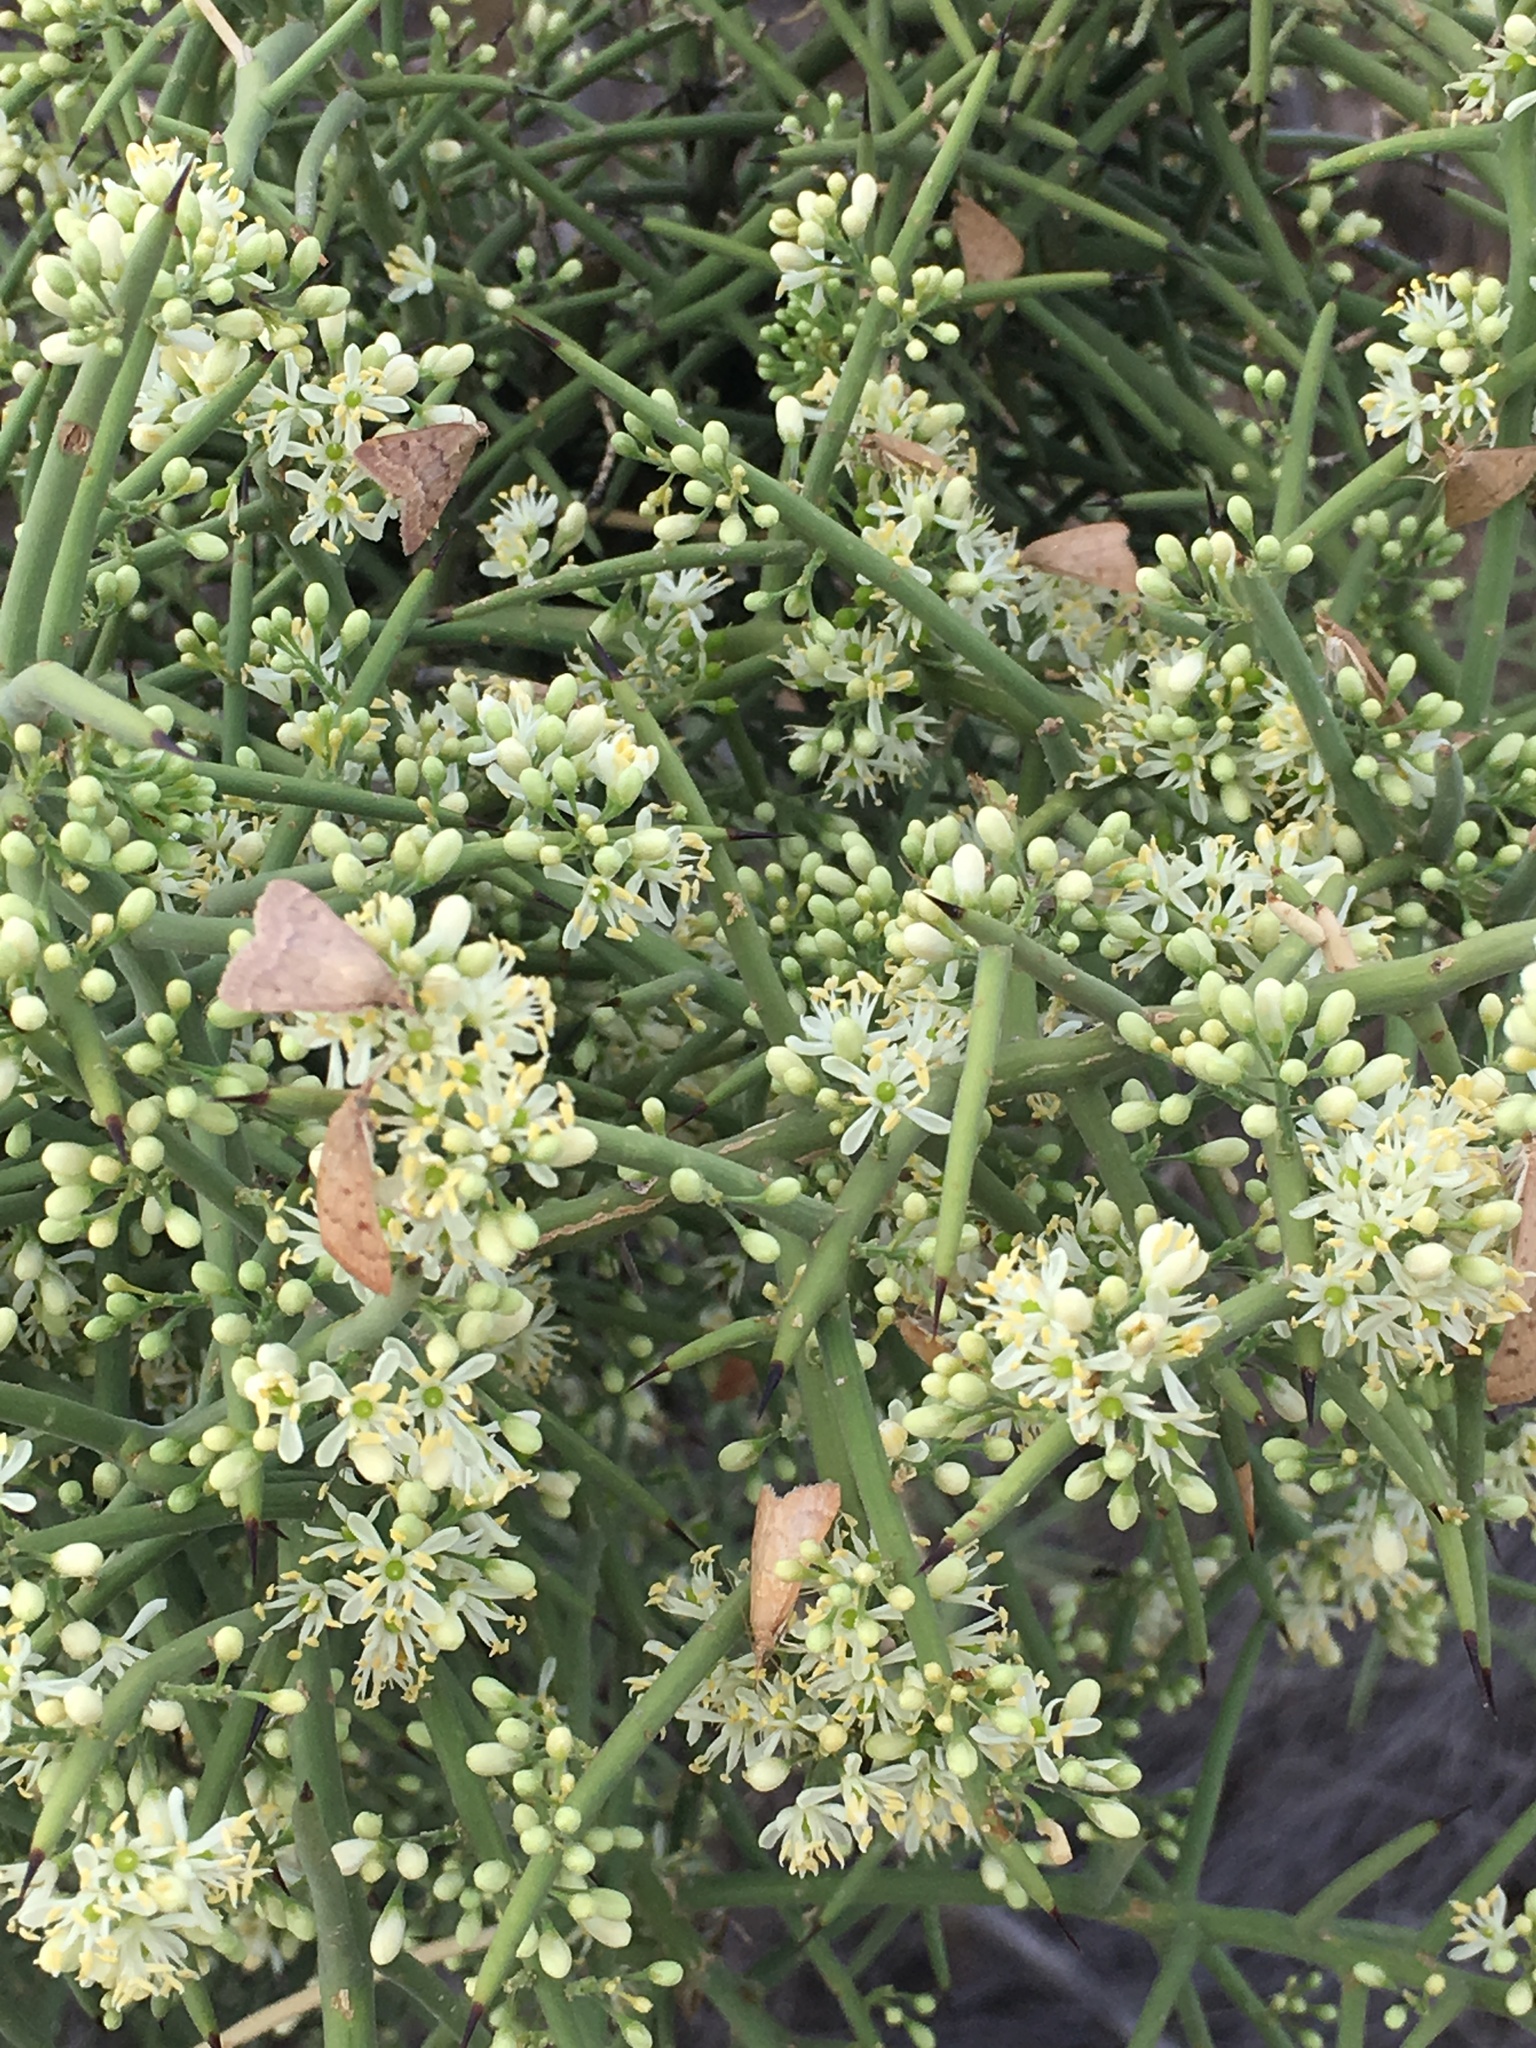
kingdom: Animalia
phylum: Arthropoda
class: Insecta
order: Lepidoptera
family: Crambidae
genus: Achyra
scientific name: Achyra rantalis
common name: Garden webworm
